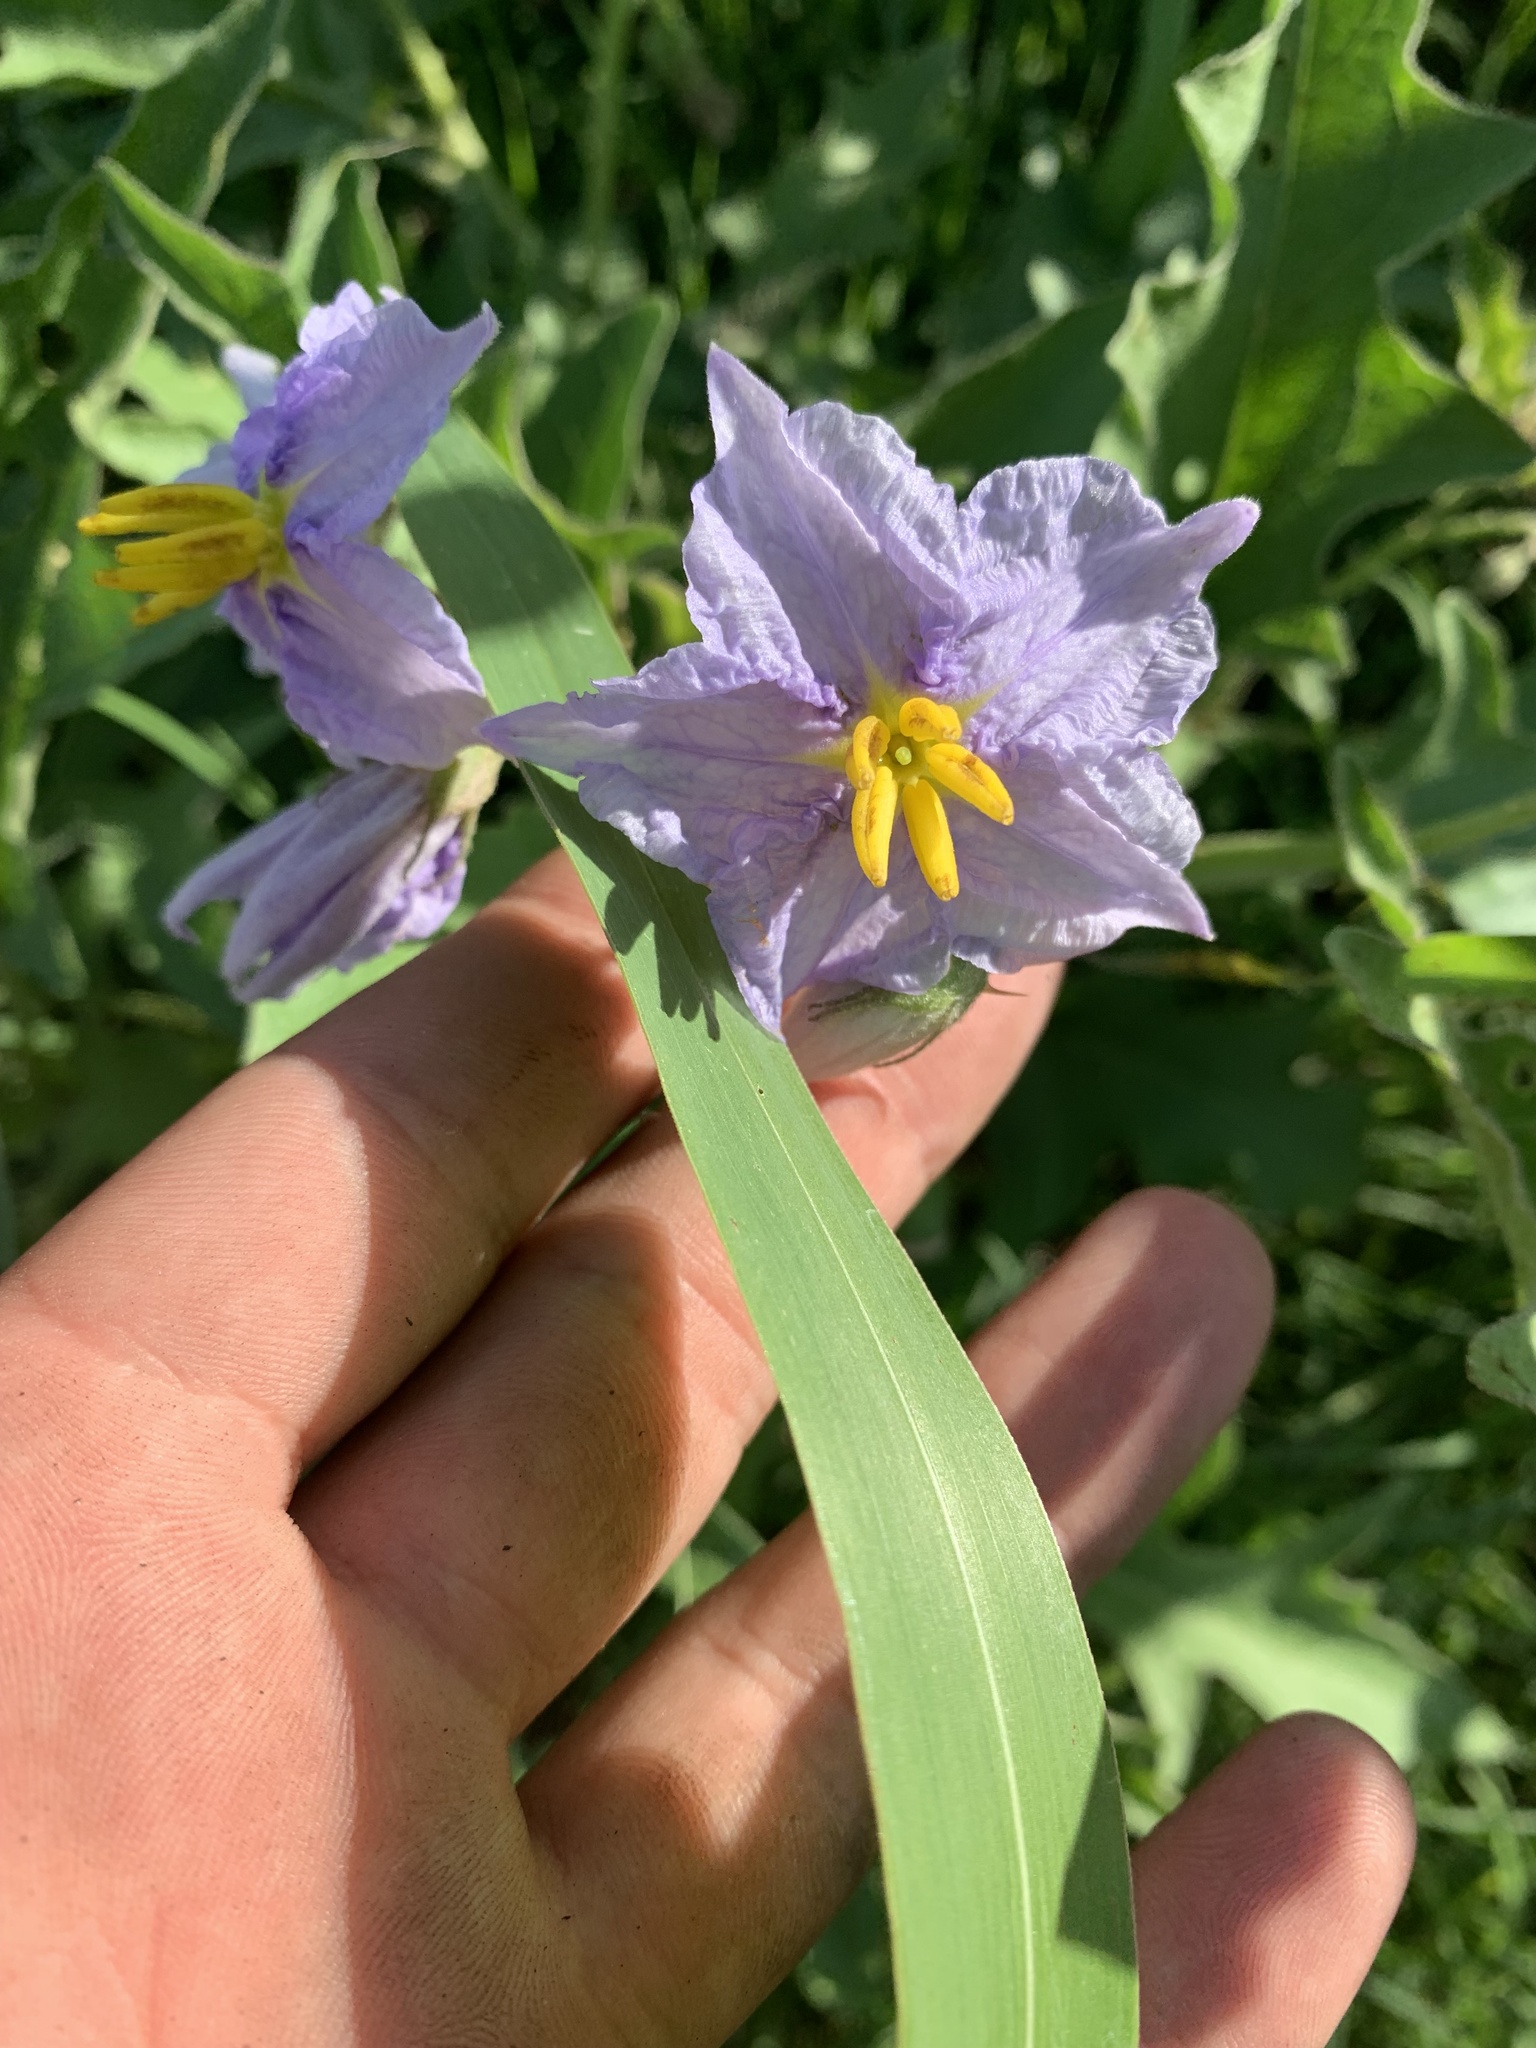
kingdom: Plantae
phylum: Tracheophyta
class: Magnoliopsida
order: Solanales
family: Solanaceae
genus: Solanum
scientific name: Solanum dimidiatum
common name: Carolina horse-nettle
